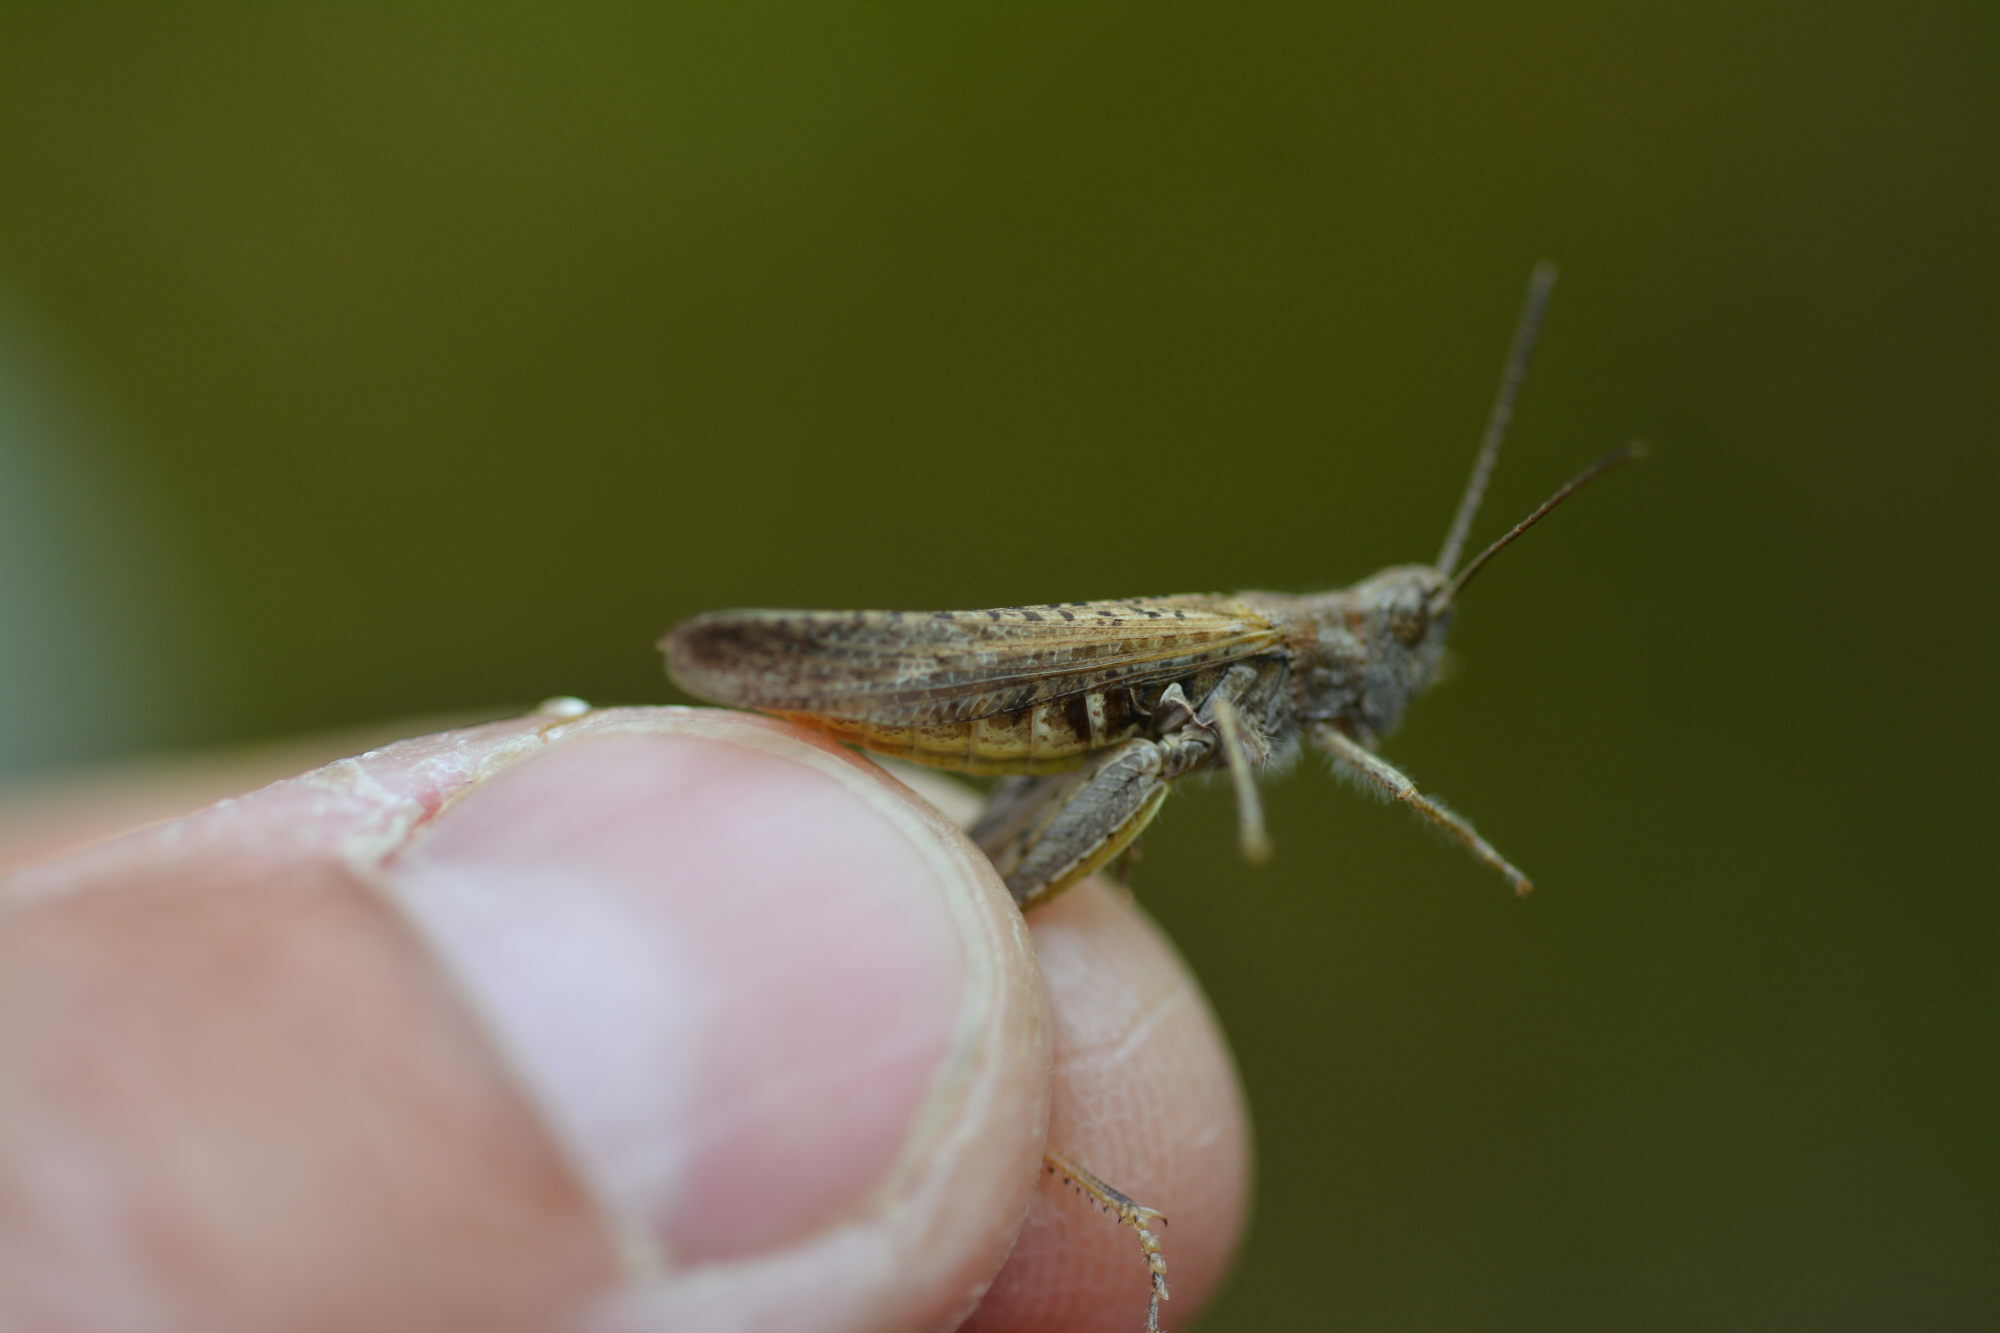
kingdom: Animalia
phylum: Arthropoda
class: Insecta
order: Orthoptera
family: Acrididae
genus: Chorthippus
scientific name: Chorthippus brunneus
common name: Field grasshopper
